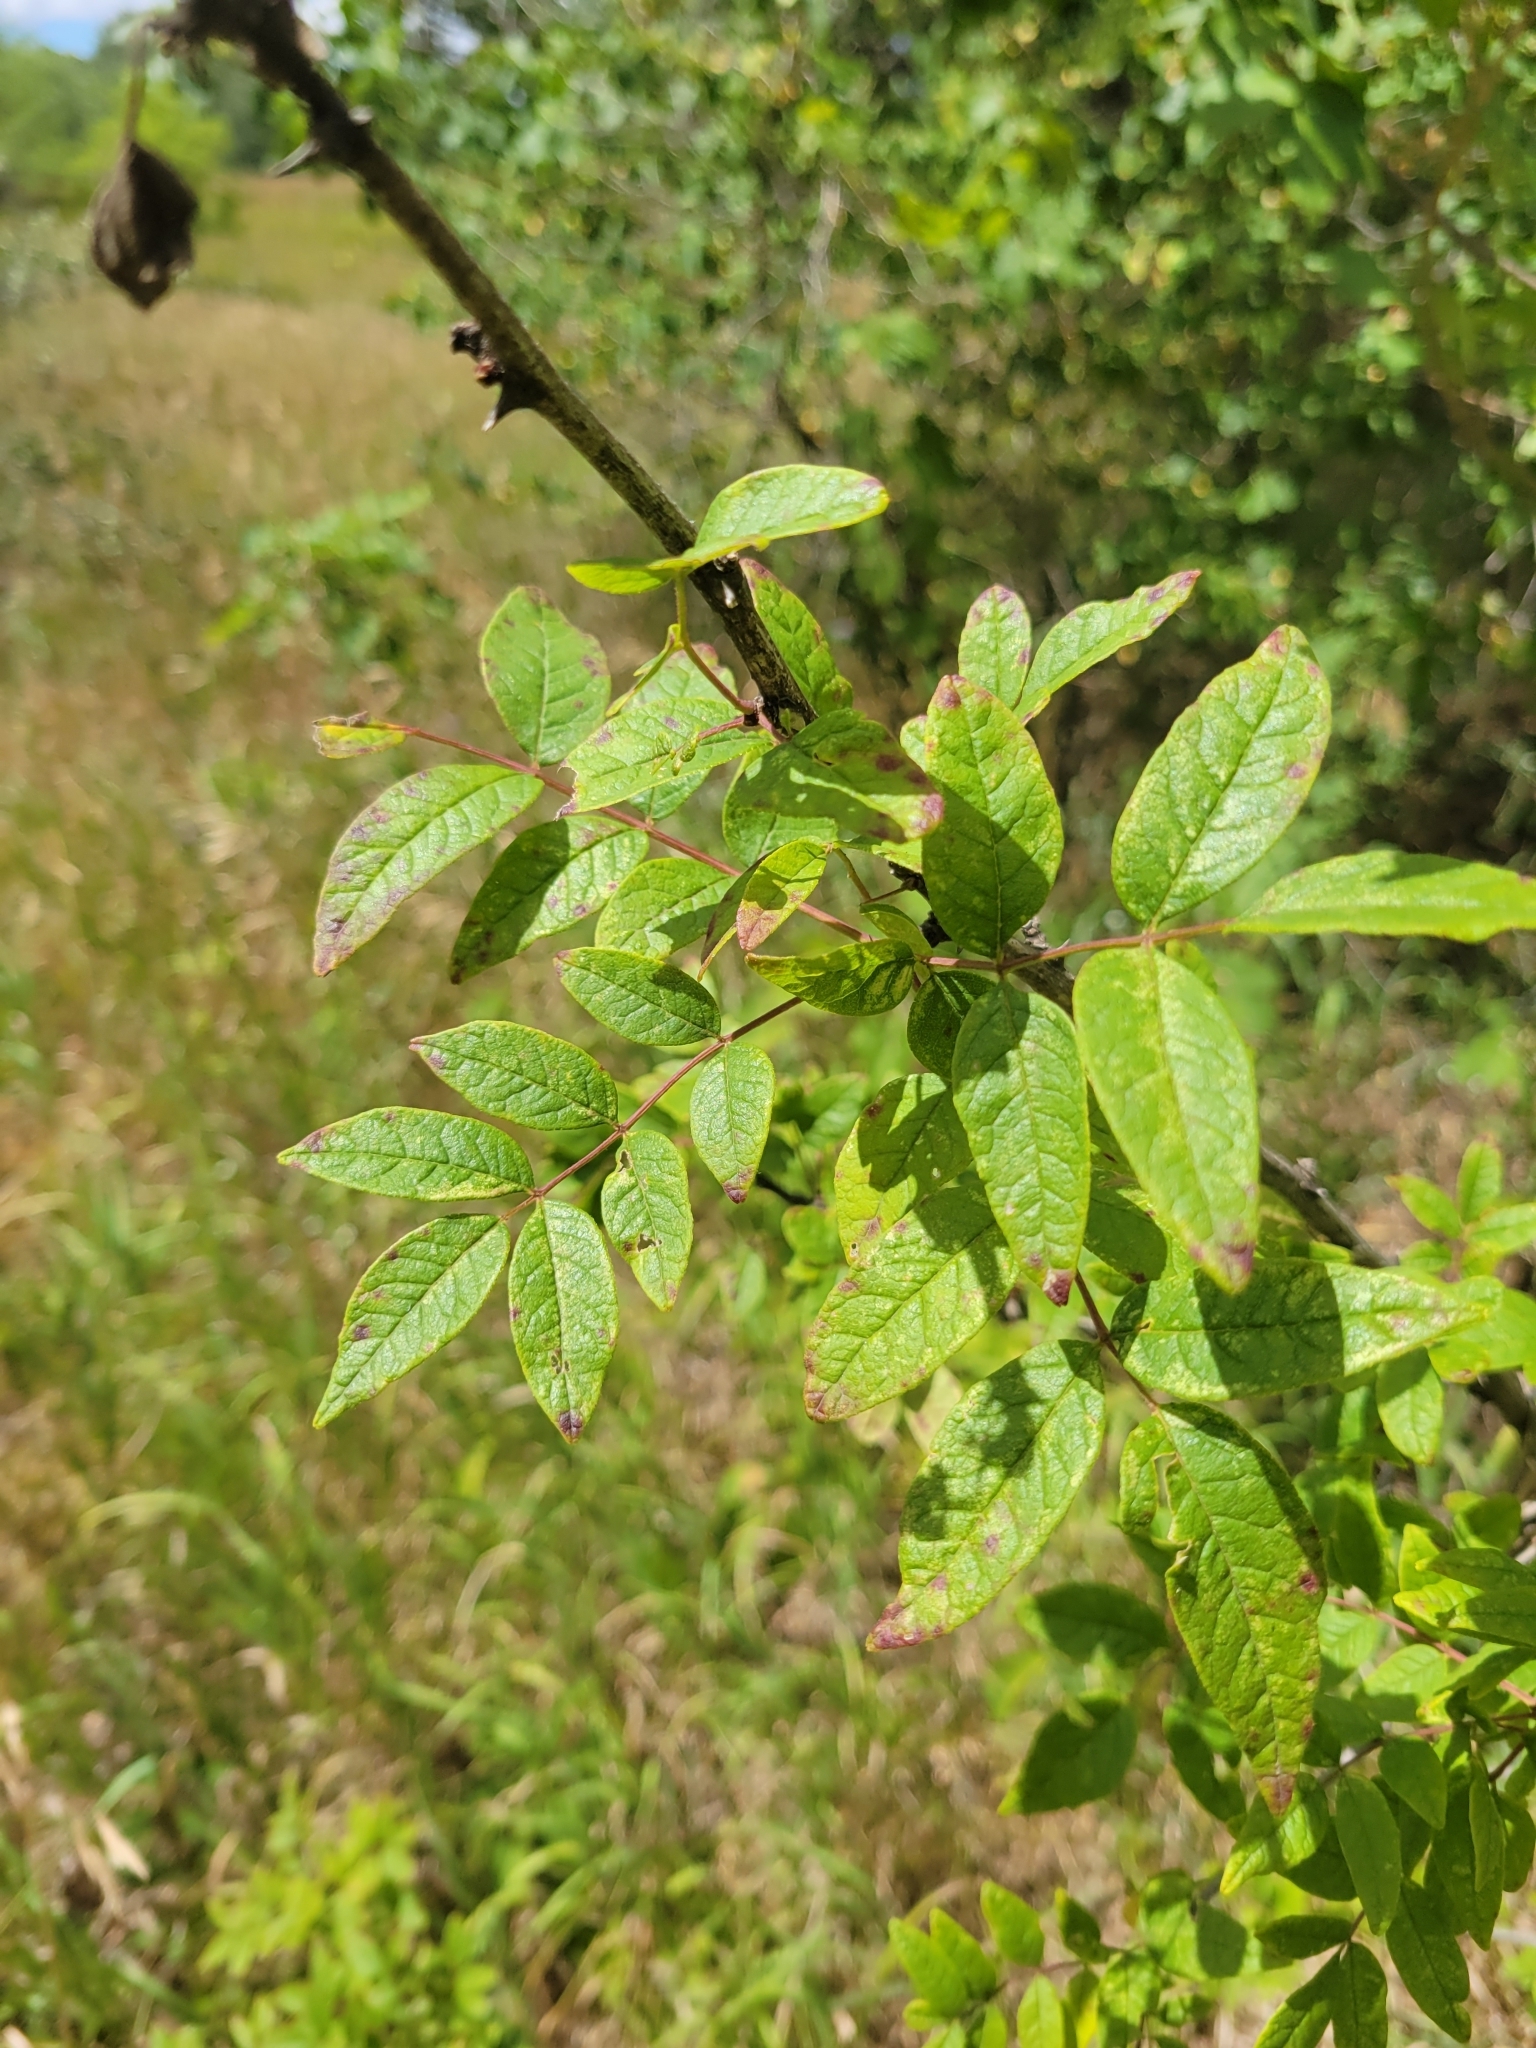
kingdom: Plantae
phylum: Tracheophyta
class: Magnoliopsida
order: Sapindales
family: Rutaceae
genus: Zanthoxylum
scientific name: Zanthoxylum americanum
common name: Northern prickly-ash
